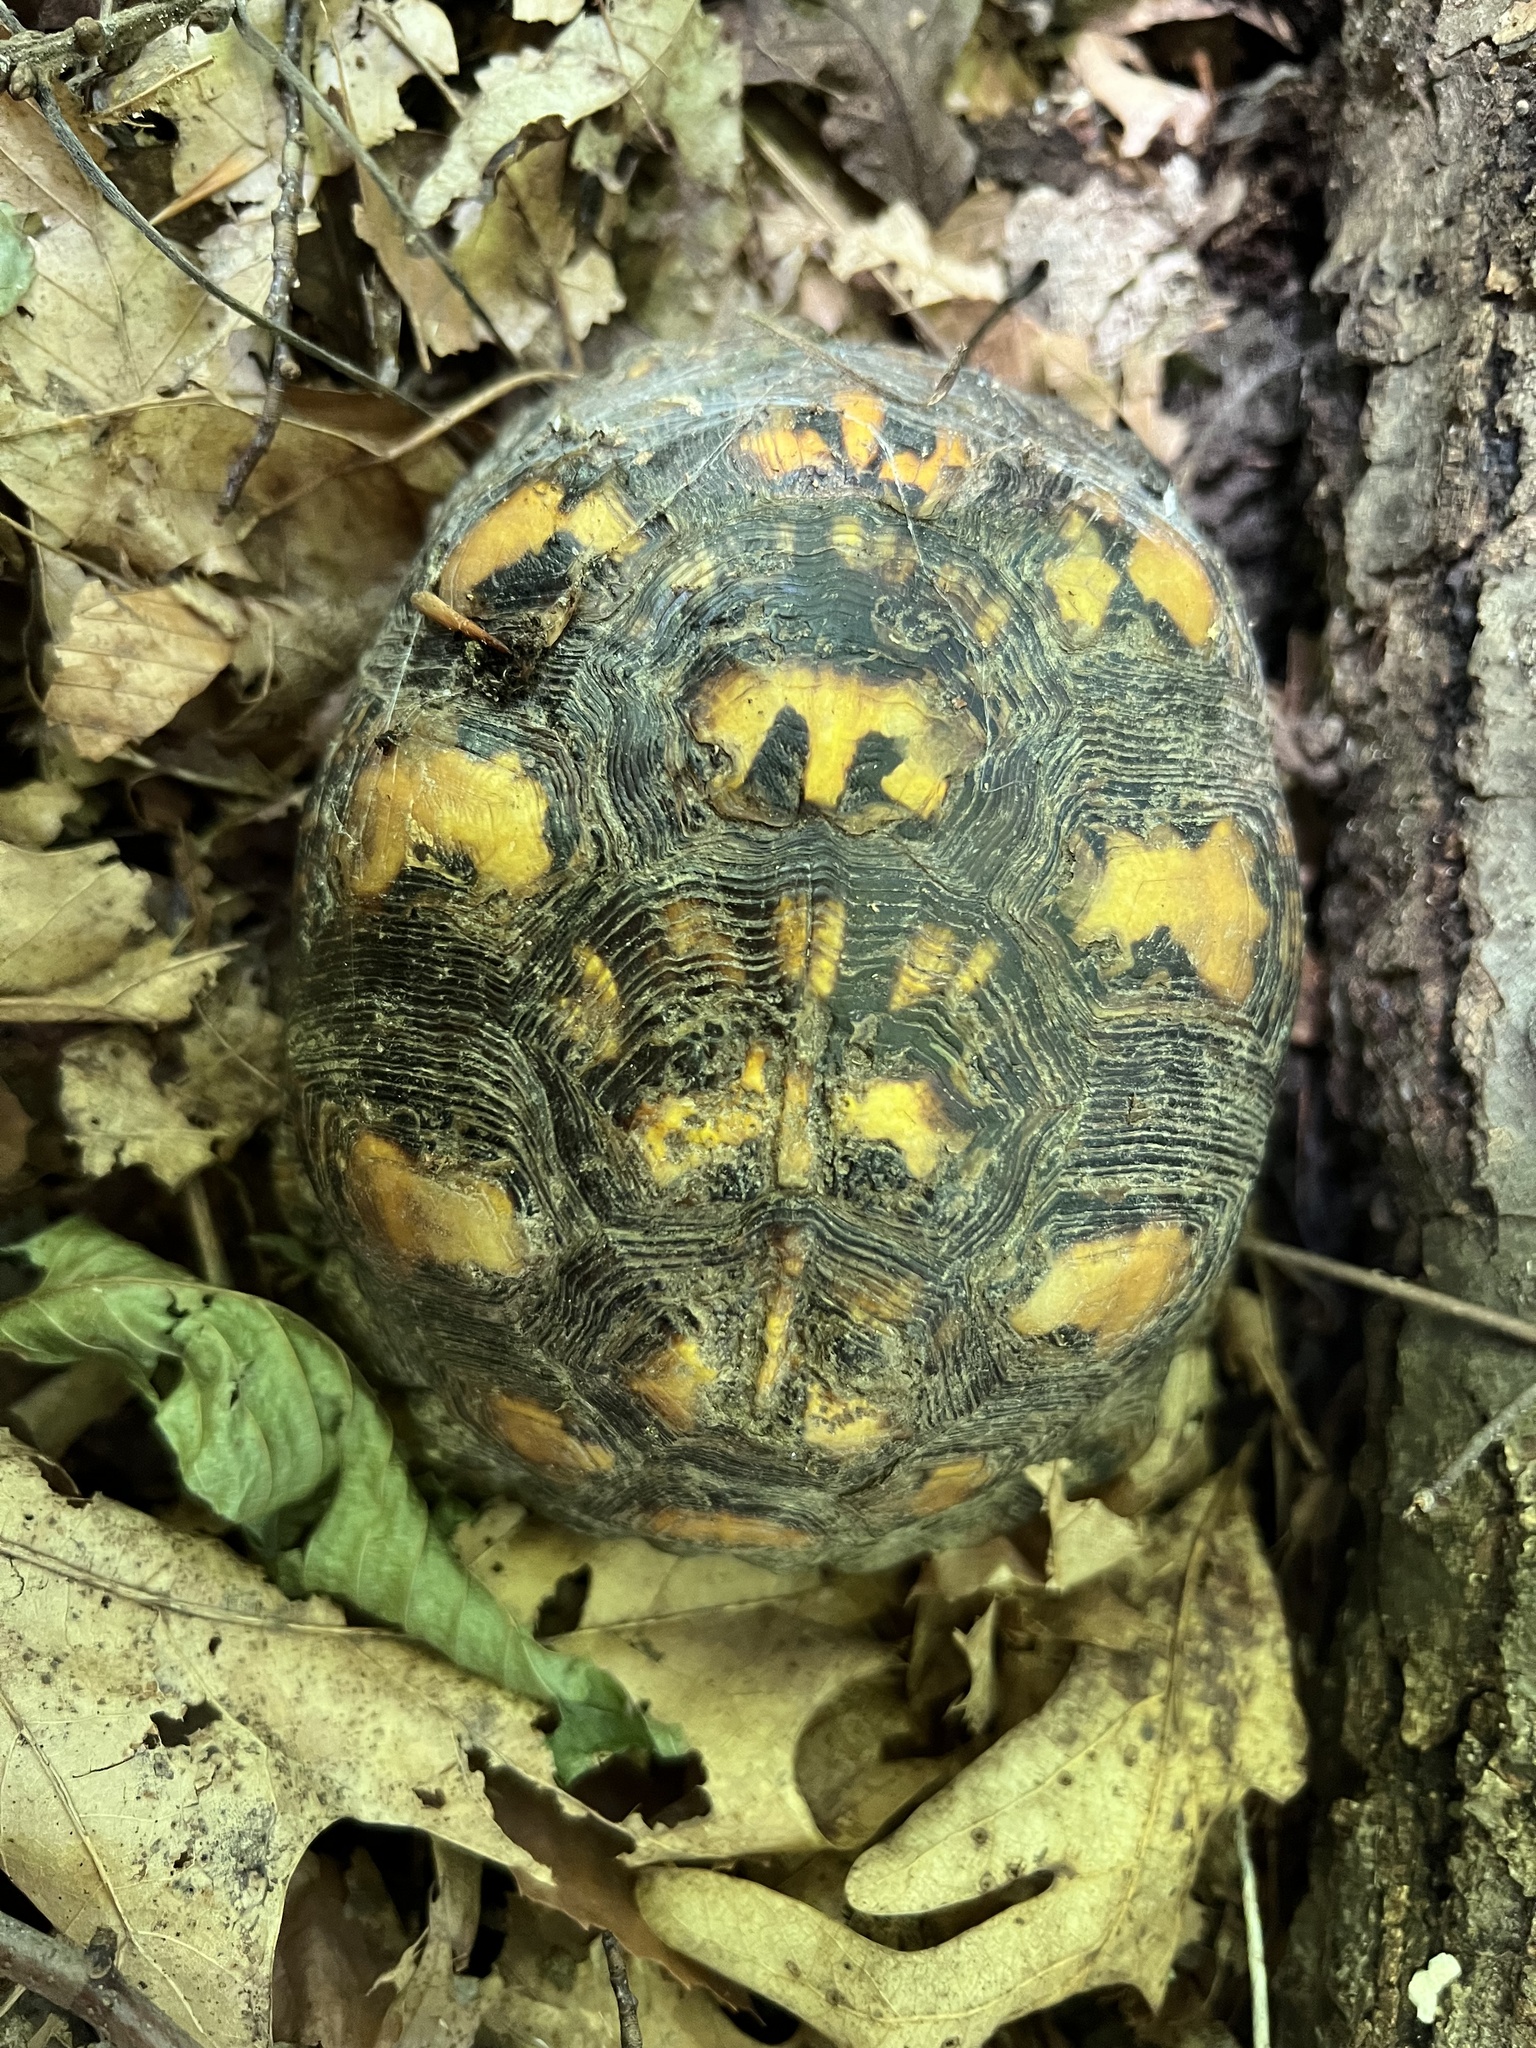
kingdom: Animalia
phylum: Chordata
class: Testudines
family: Emydidae
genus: Terrapene
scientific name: Terrapene carolina
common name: Common box turtle
